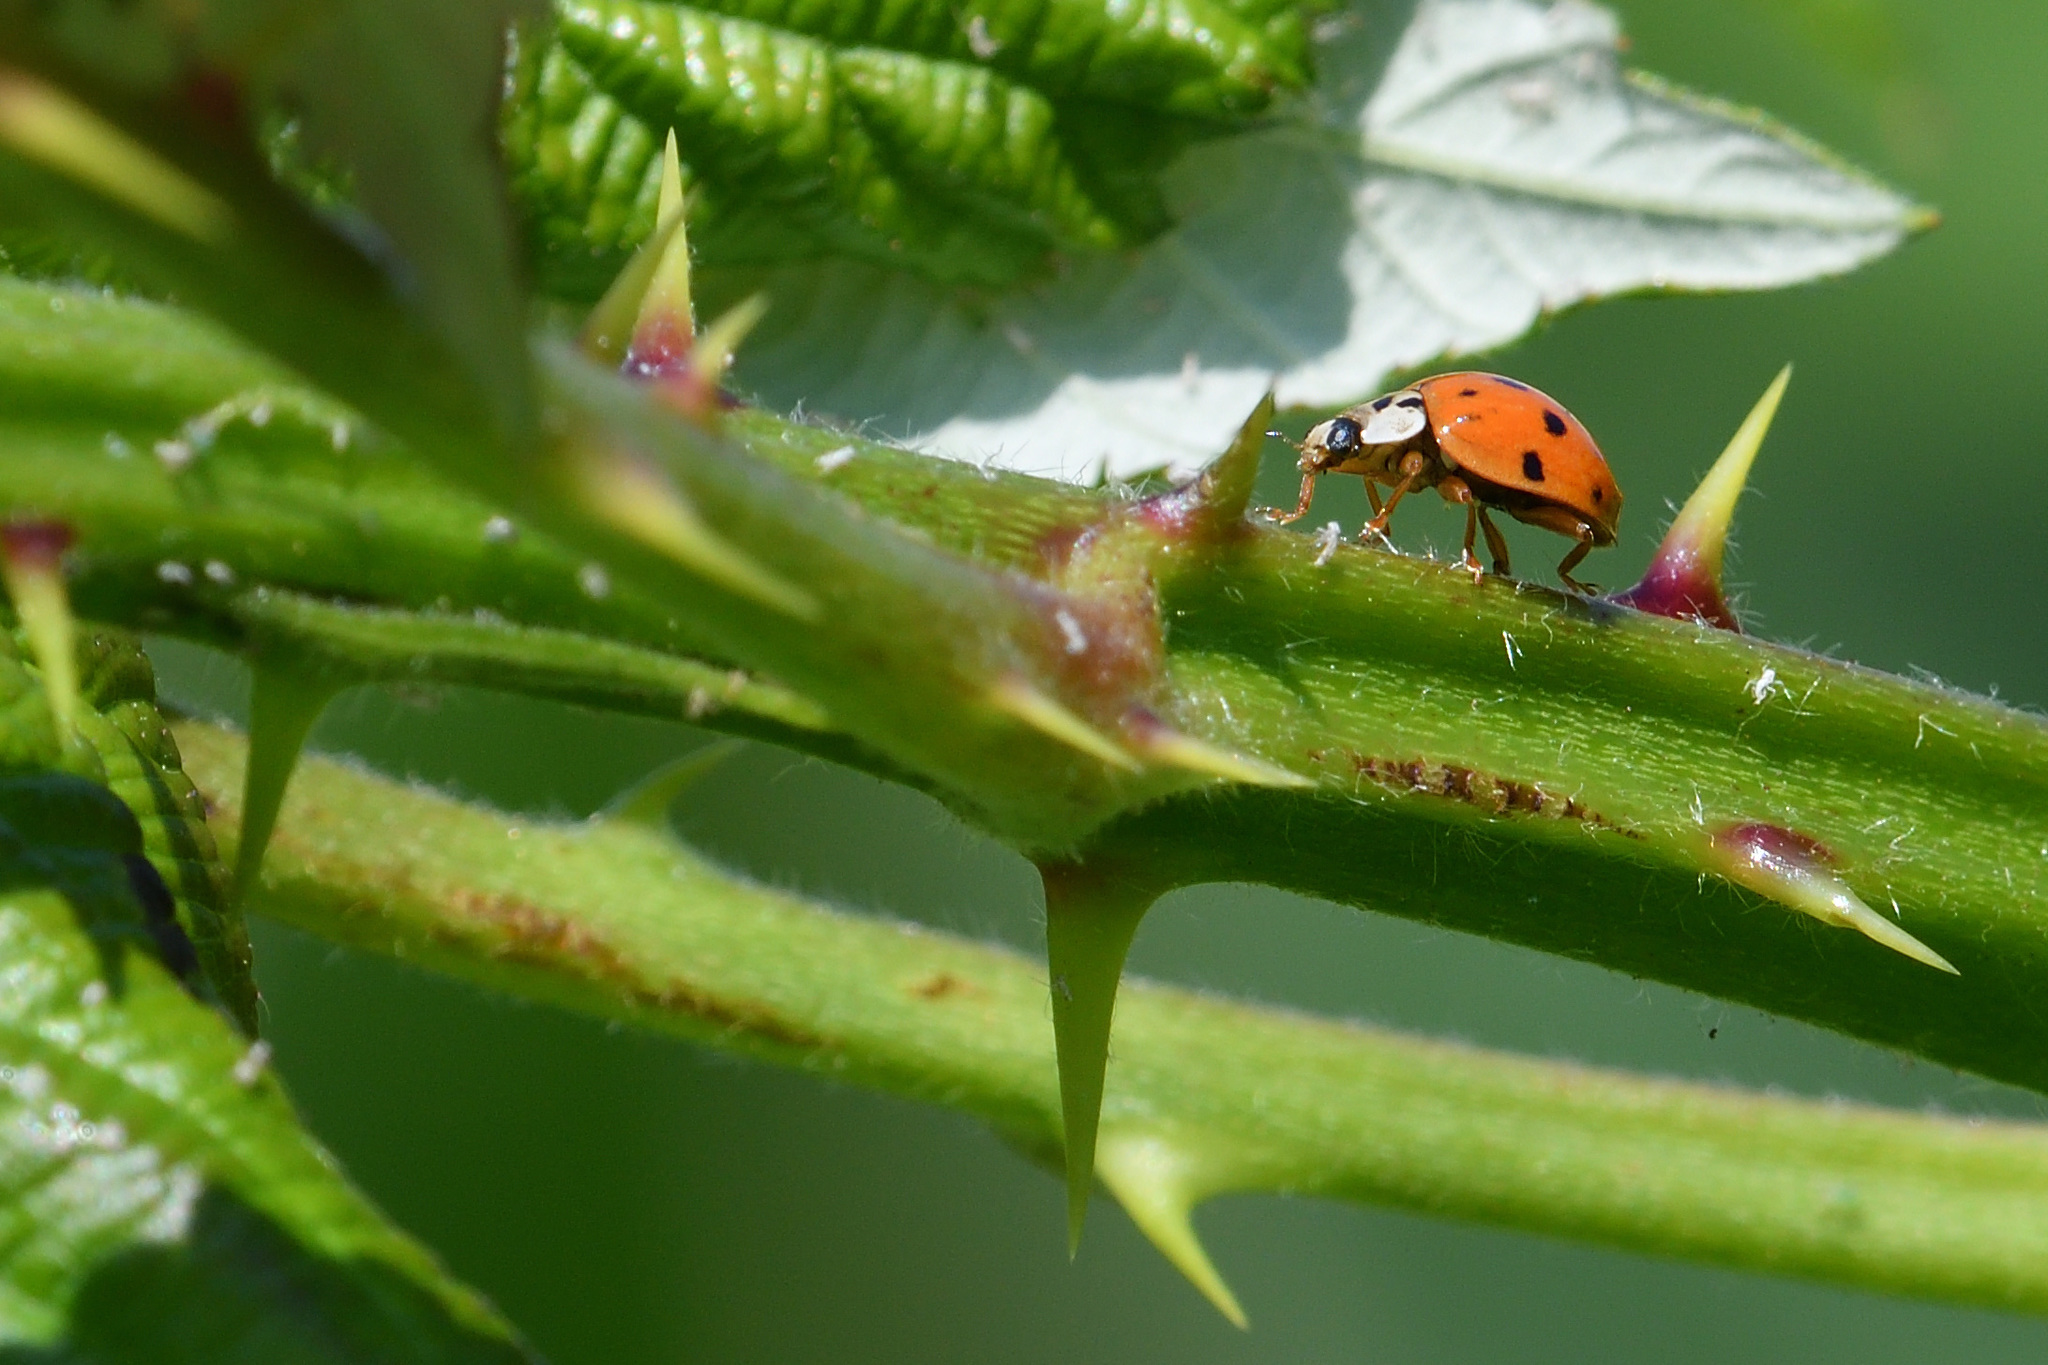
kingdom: Animalia
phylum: Arthropoda
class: Insecta
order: Coleoptera
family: Coccinellidae
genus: Harmonia
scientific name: Harmonia axyridis
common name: Harlequin ladybird
